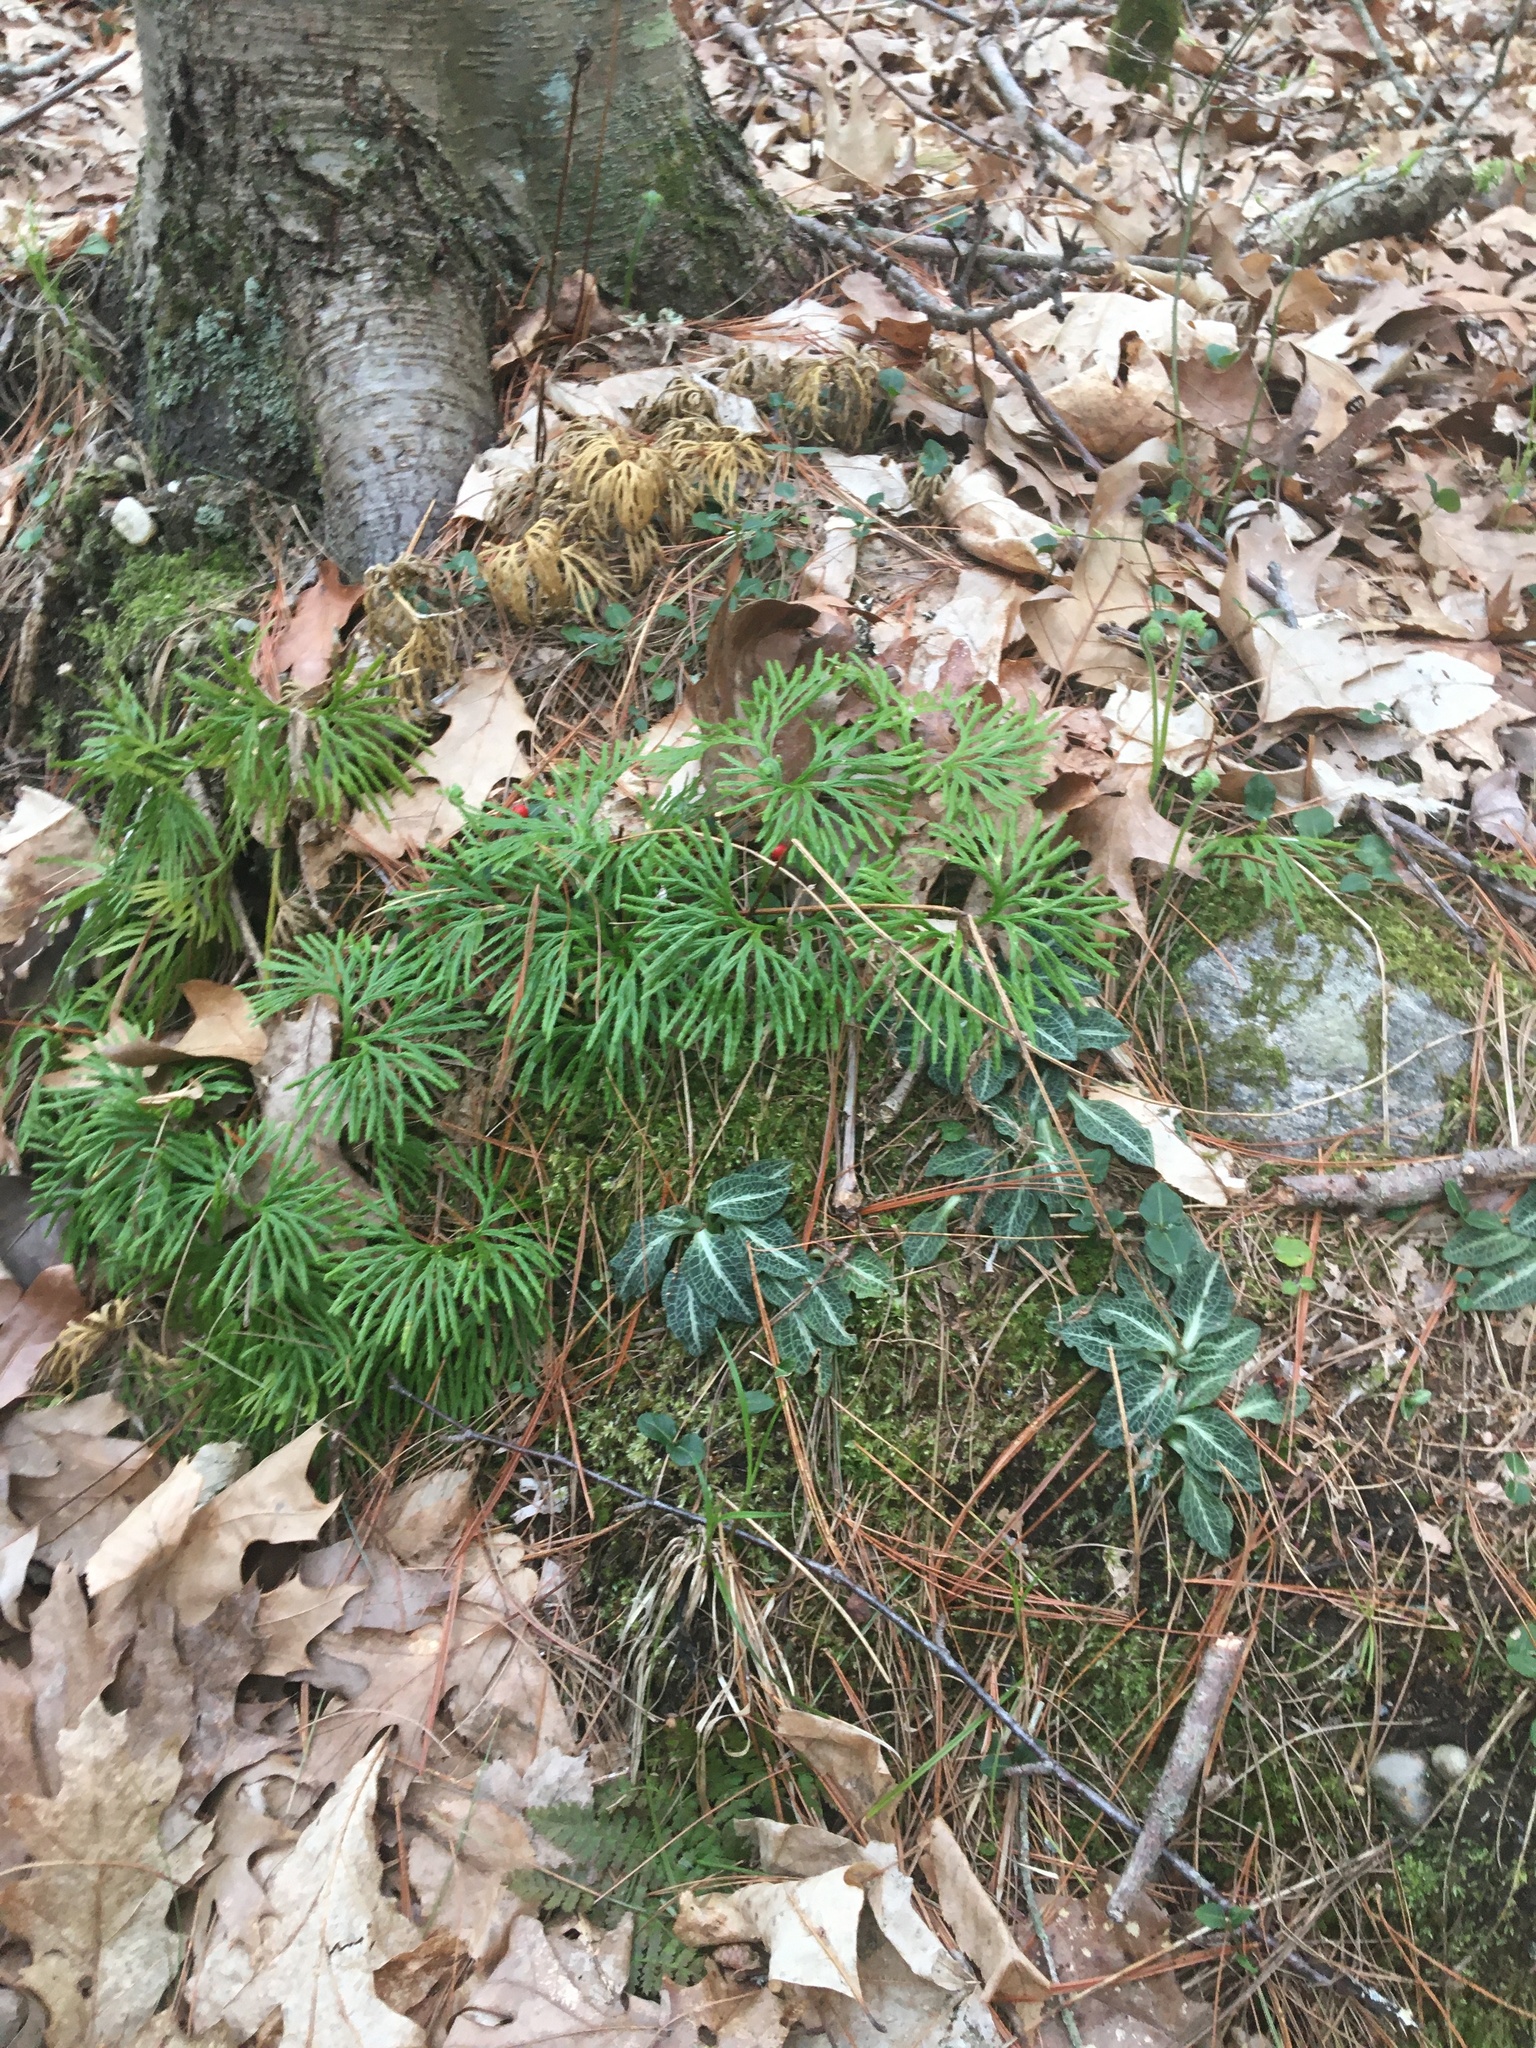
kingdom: Plantae
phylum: Tracheophyta
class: Lycopodiopsida
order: Lycopodiales
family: Lycopodiaceae
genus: Diphasiastrum
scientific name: Diphasiastrum digitatum
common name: Southern running-pine
